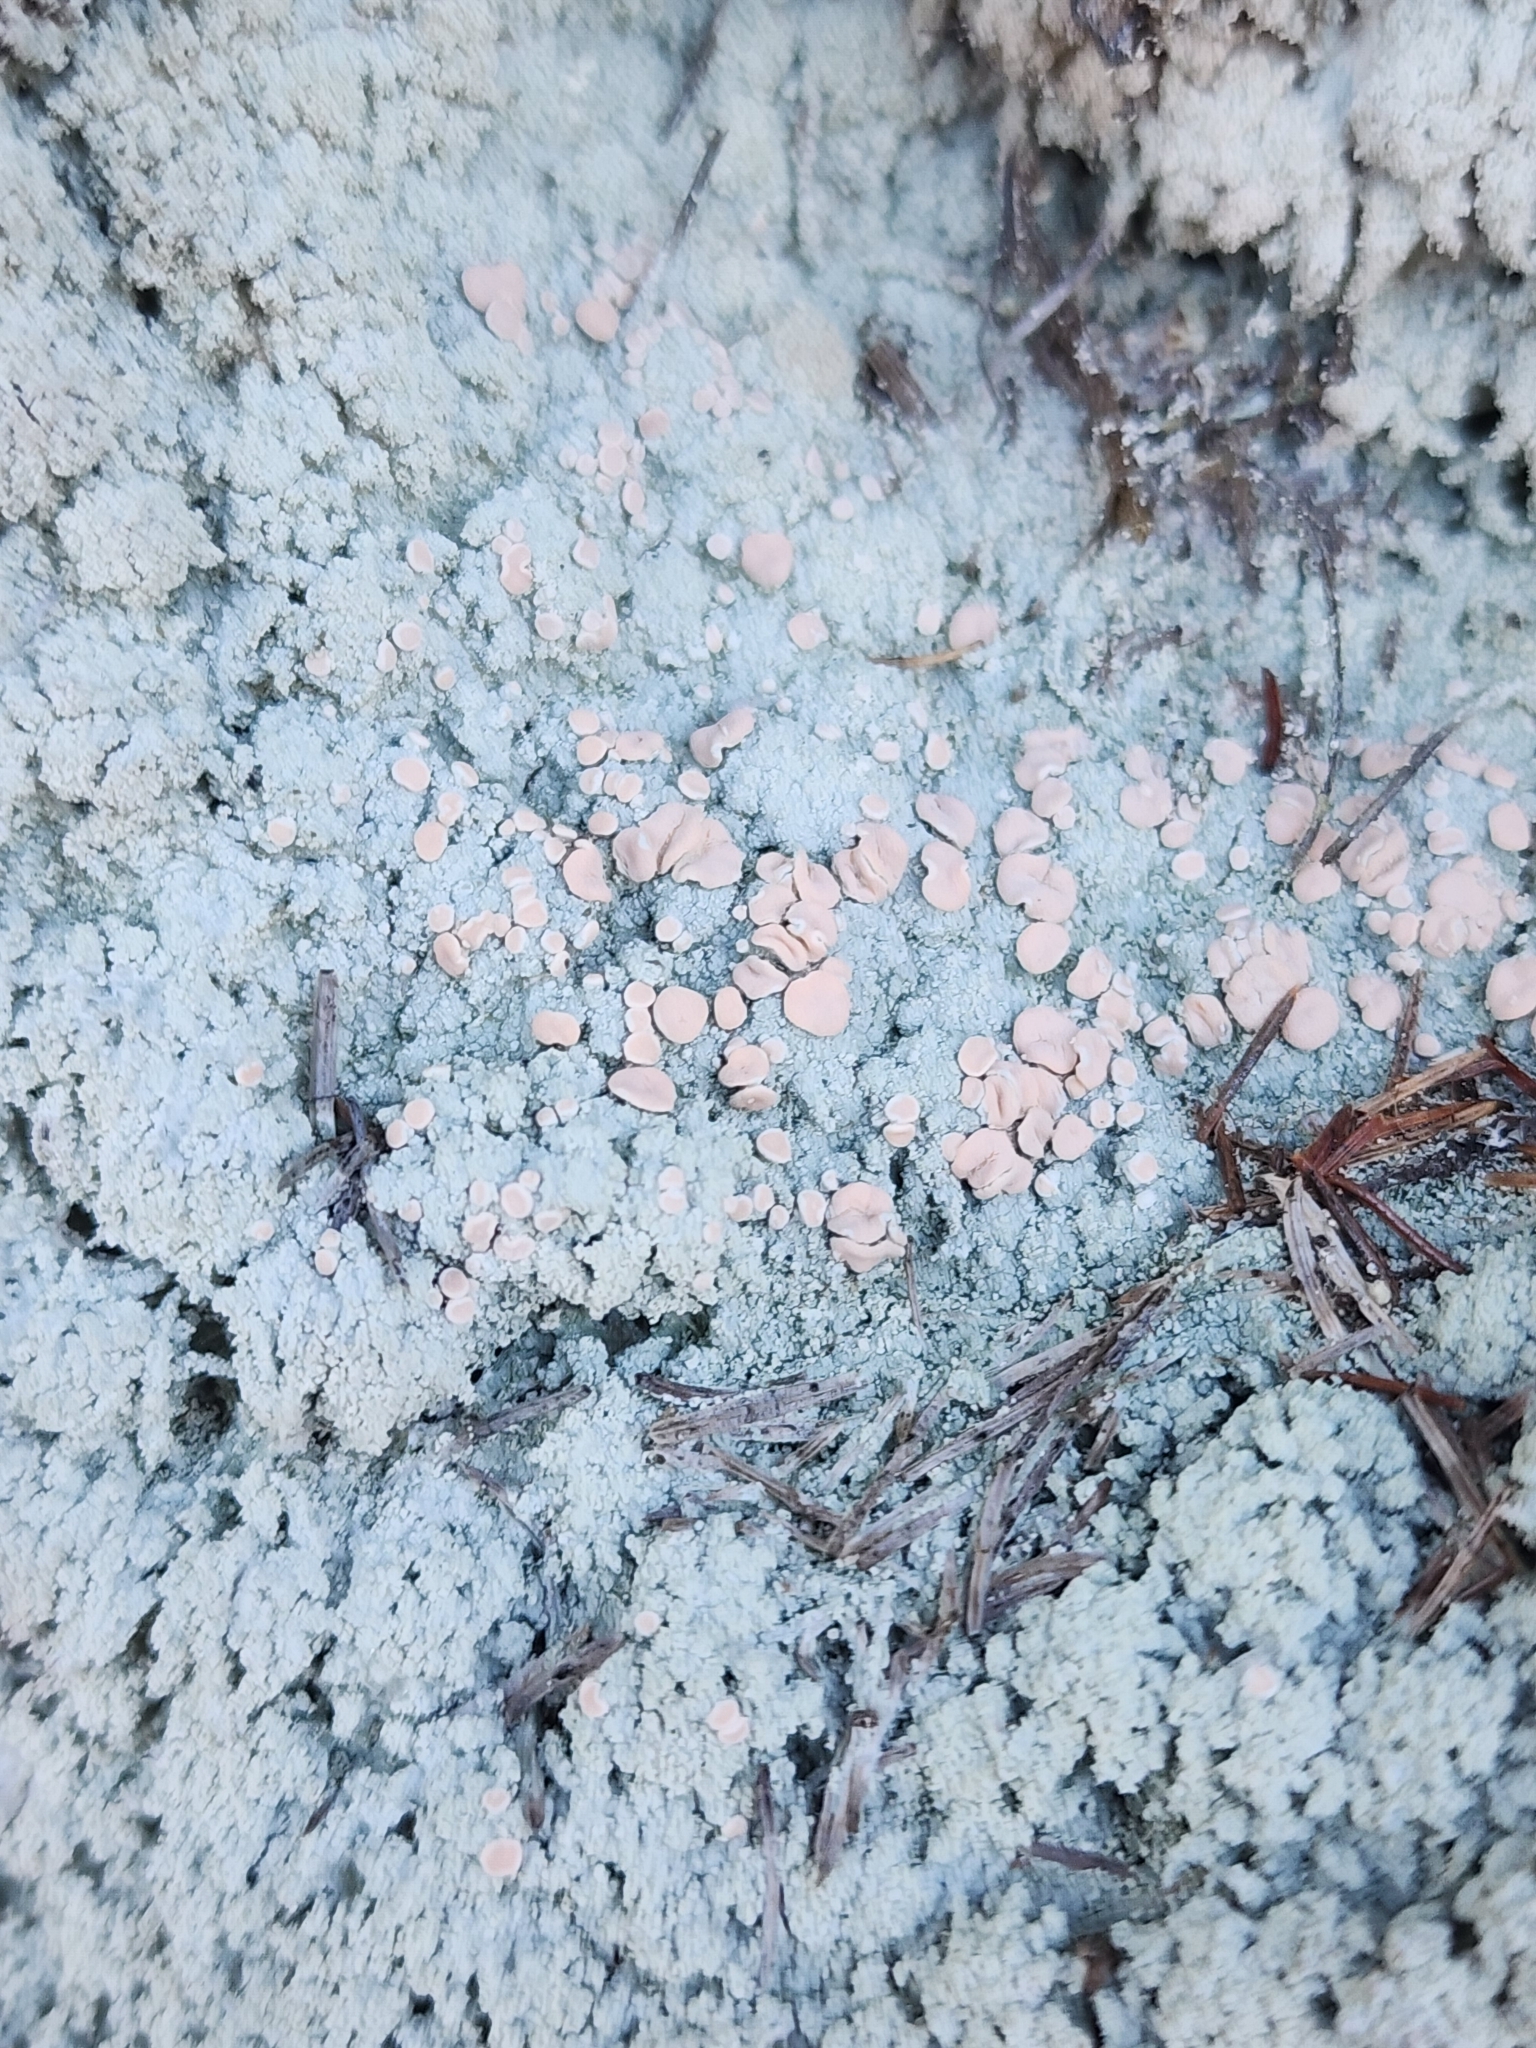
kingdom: Fungi
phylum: Ascomycota
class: Lecanoromycetes
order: Pertusariales
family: Icmadophilaceae
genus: Icmadophila
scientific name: Icmadophila ericetorum
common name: Candy lichen
